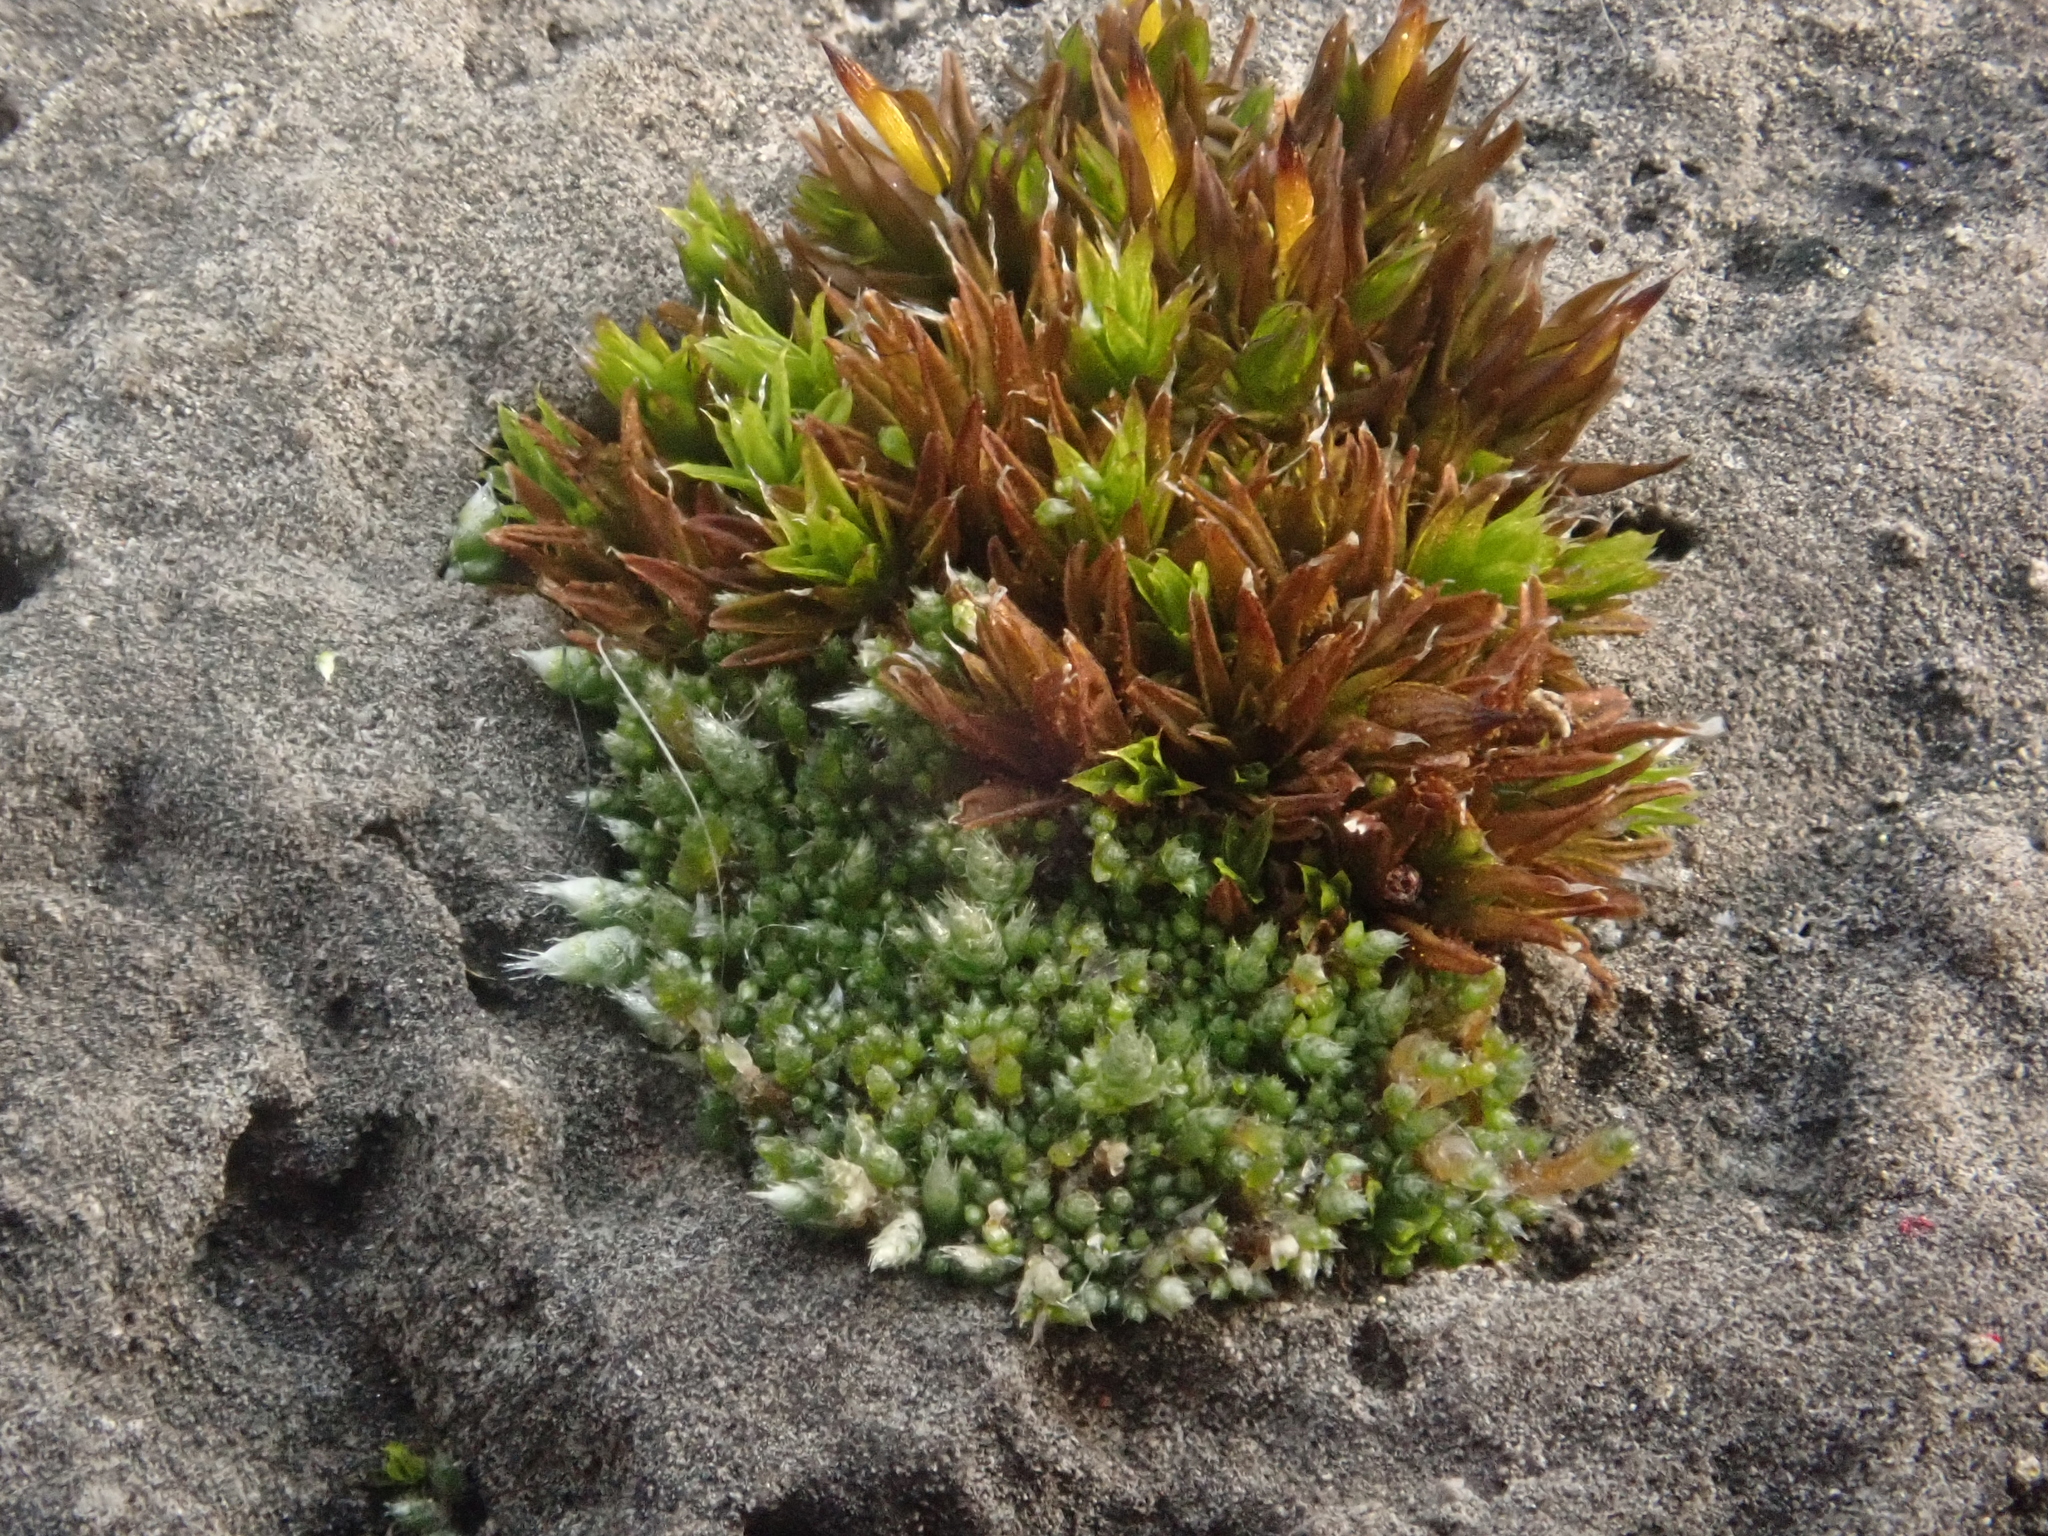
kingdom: Plantae
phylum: Bryophyta
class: Bryopsida
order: Bryales
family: Bryaceae
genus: Bryum
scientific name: Bryum argenteum
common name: Silver-moss
